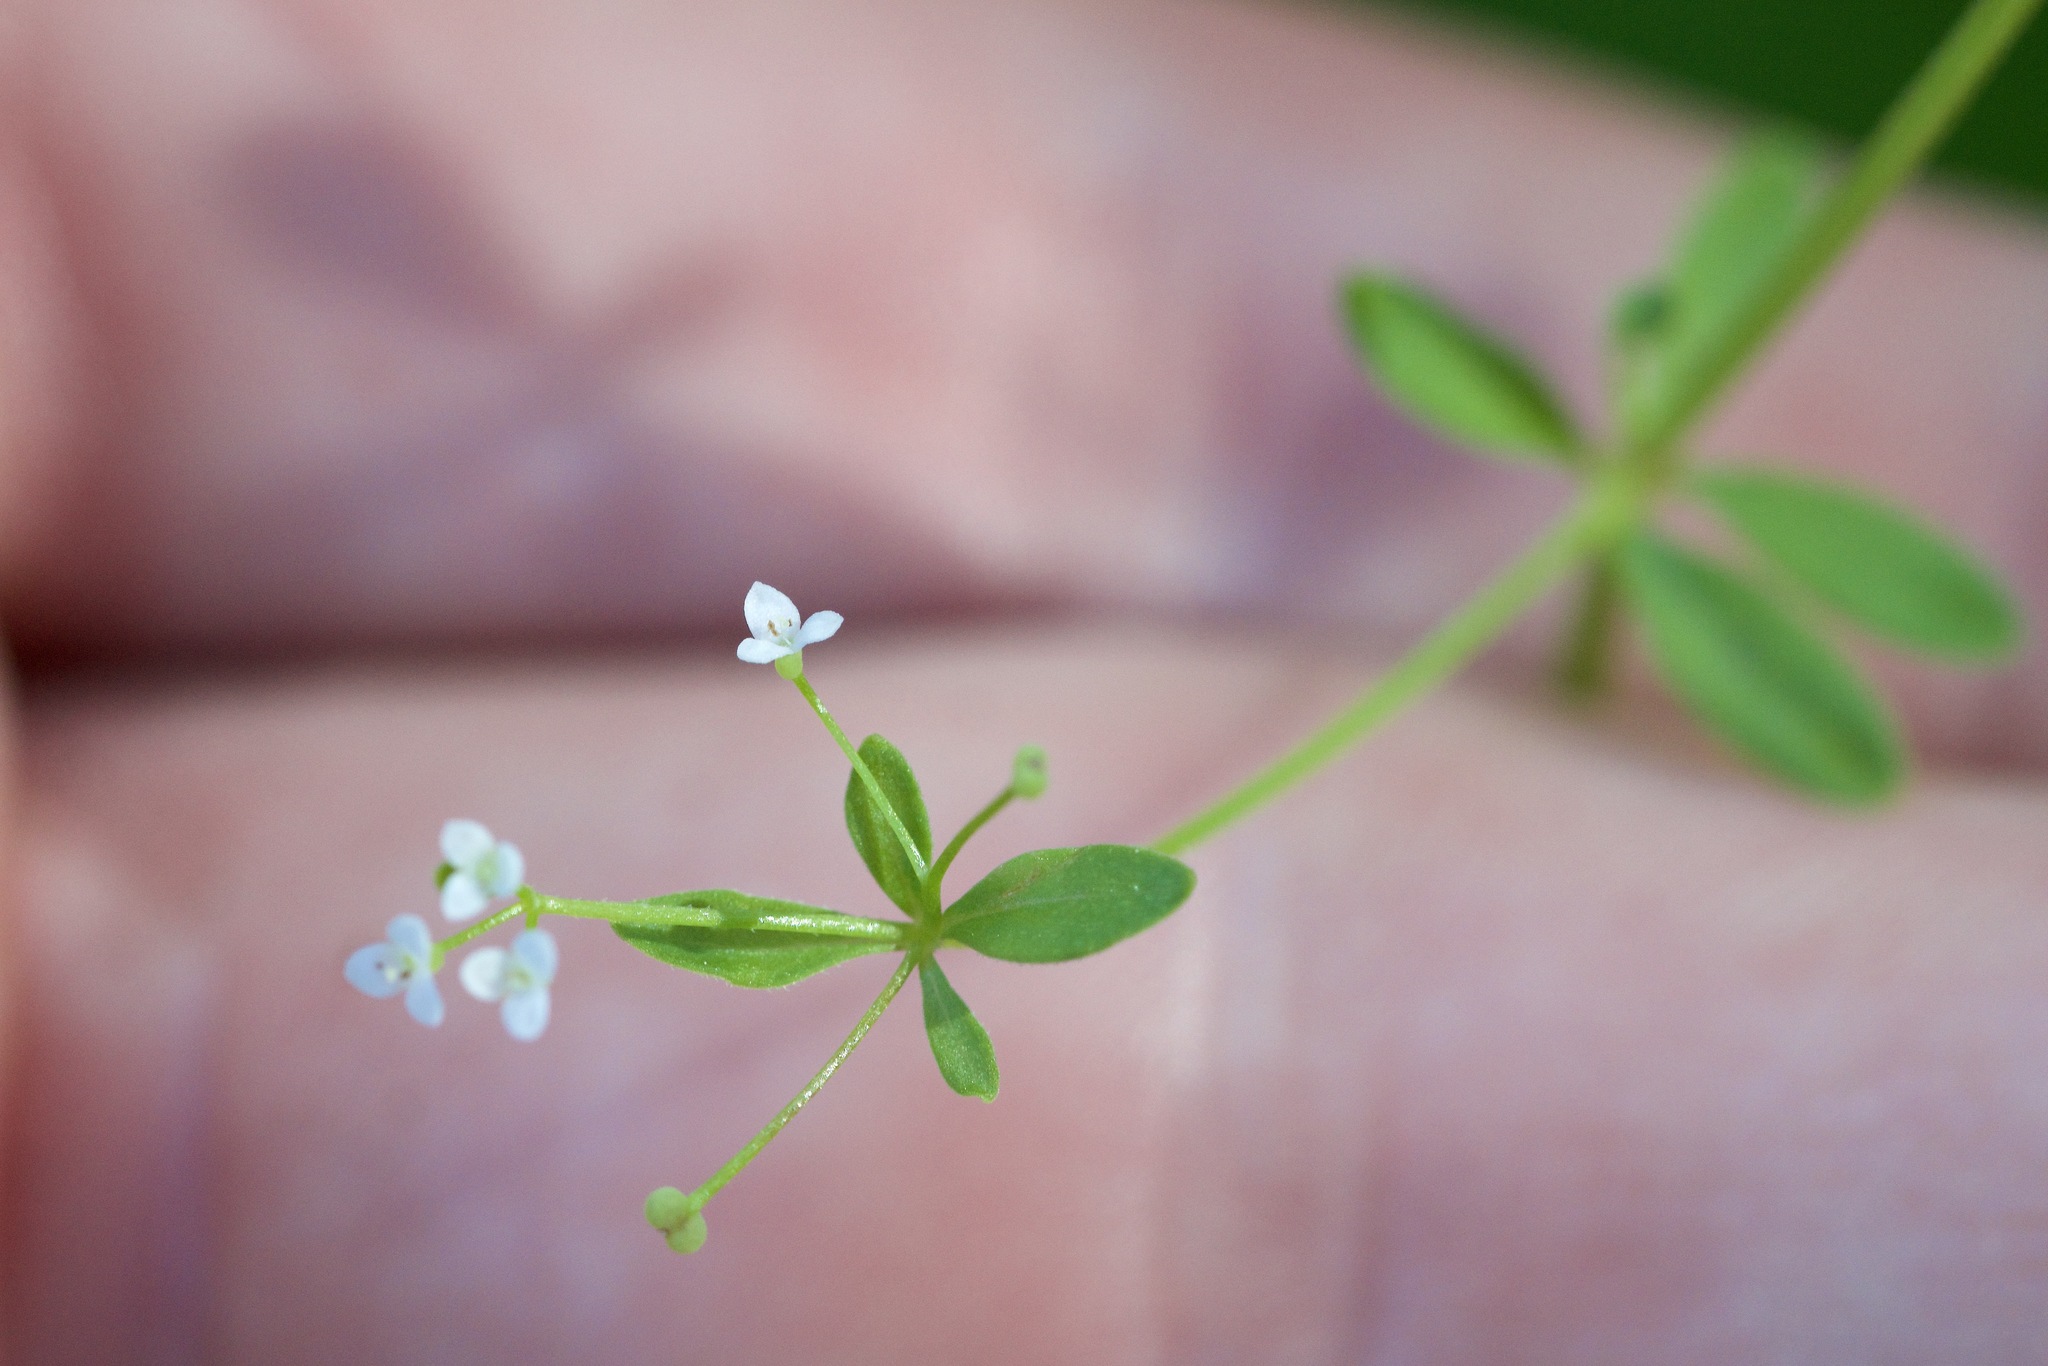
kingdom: Plantae
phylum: Tracheophyta
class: Magnoliopsida
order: Gentianales
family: Rubiaceae
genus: Galium
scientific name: Galium trifidum
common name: Small bedstraw
